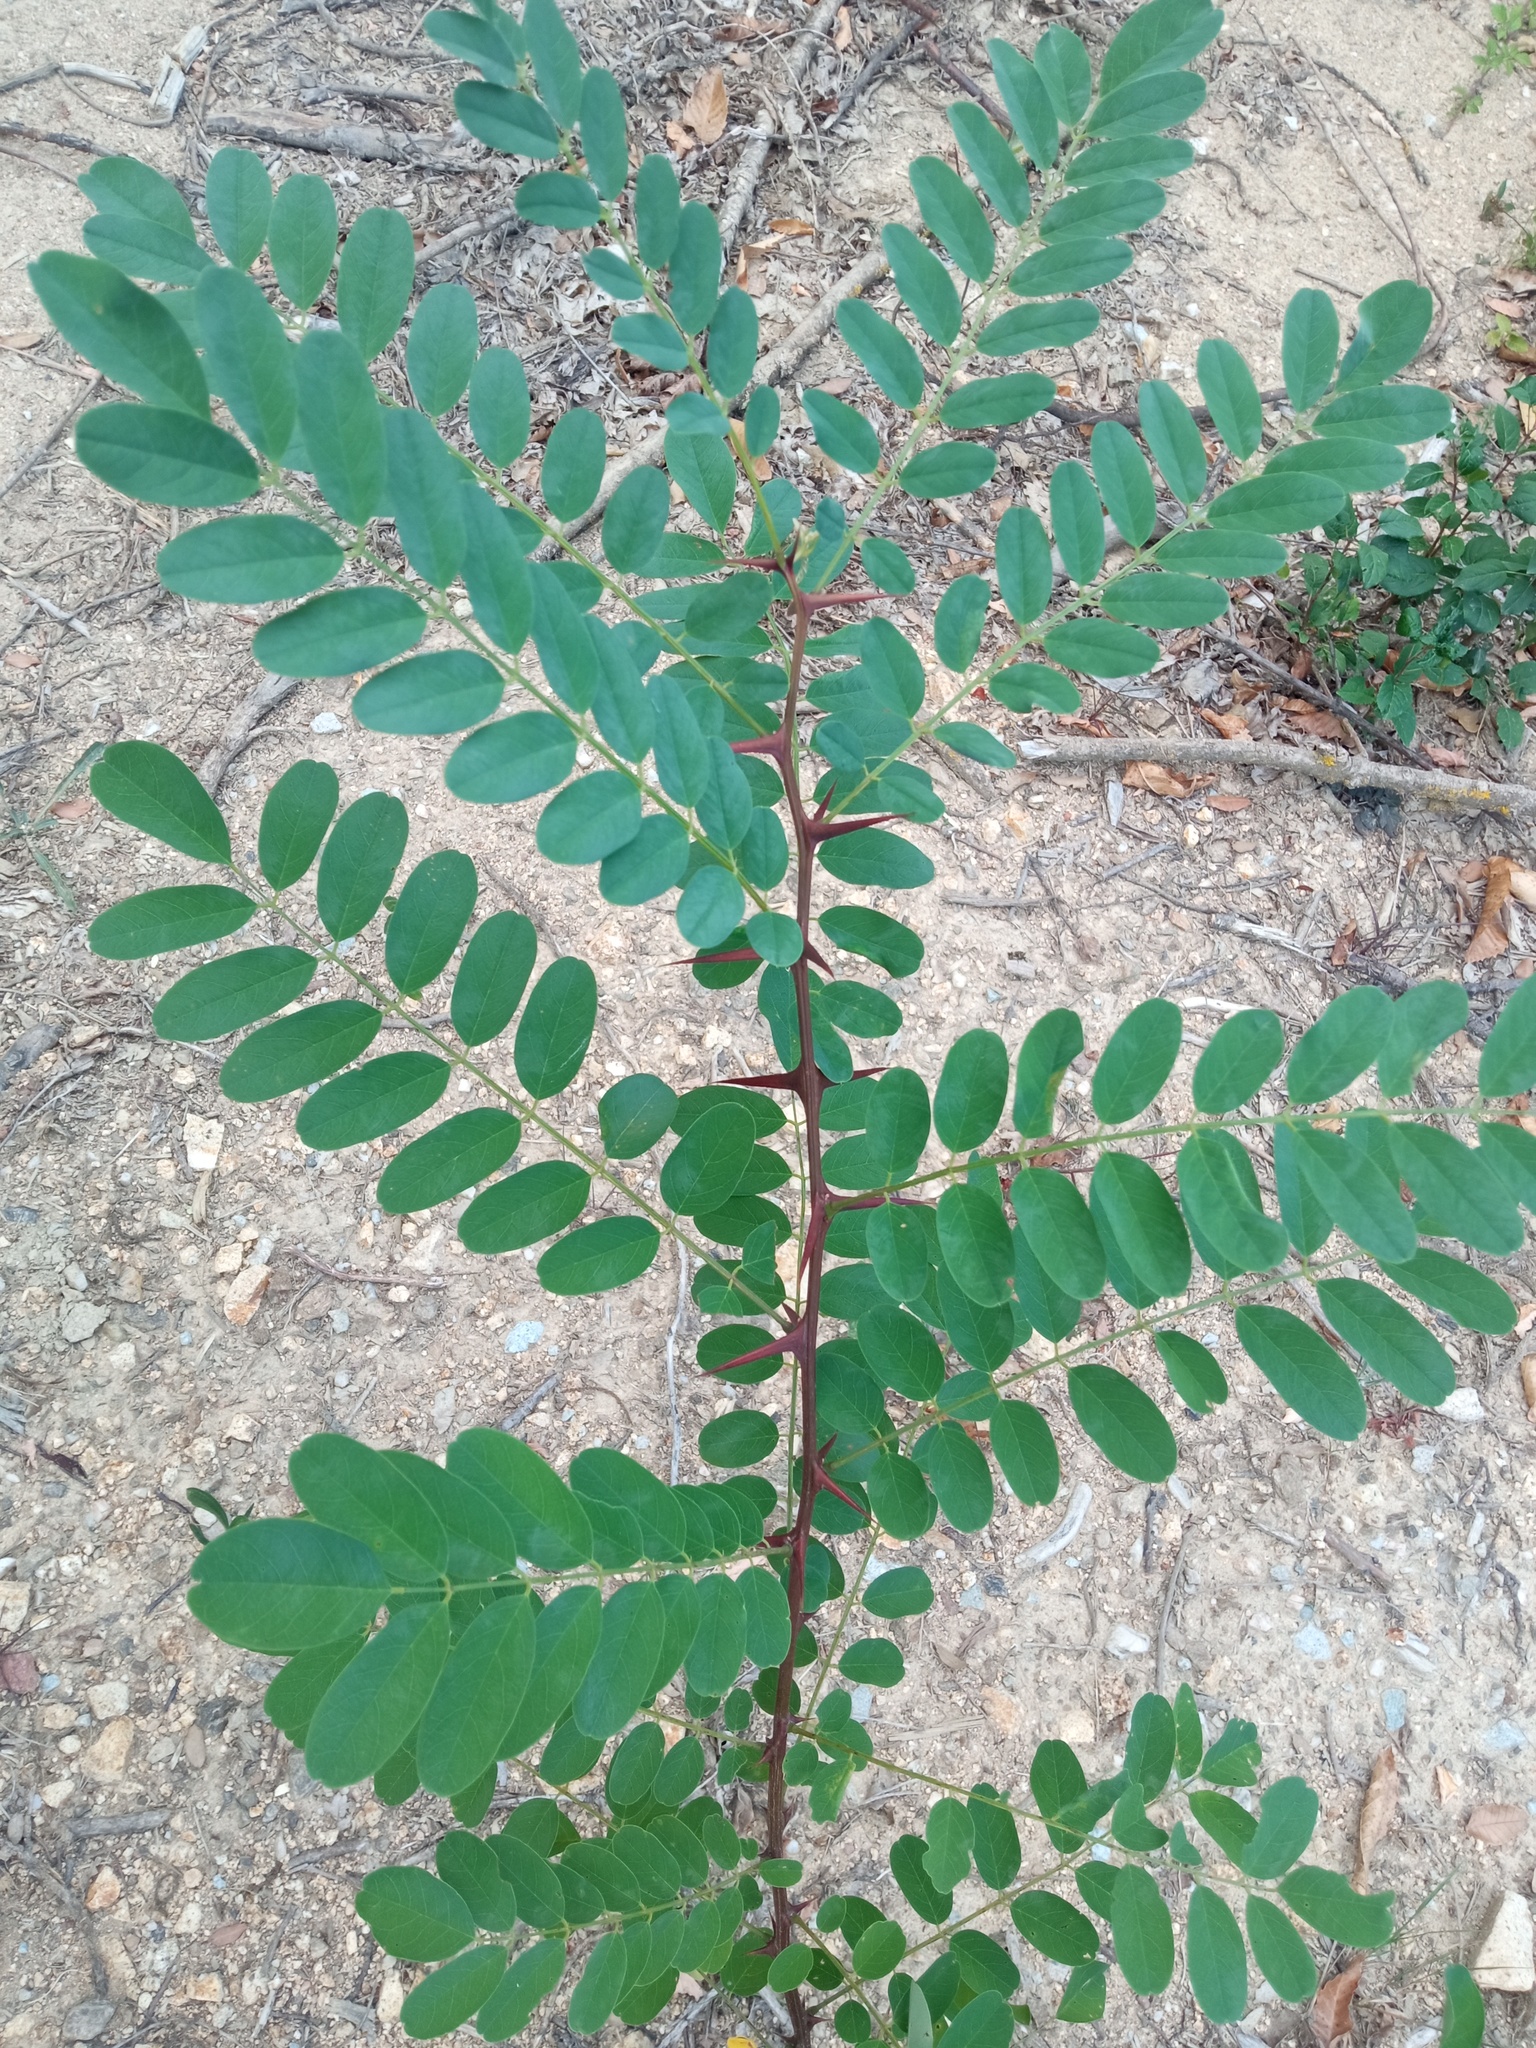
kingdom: Plantae
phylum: Tracheophyta
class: Magnoliopsida
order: Fabales
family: Fabaceae
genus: Robinia
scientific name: Robinia pseudoacacia
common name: Black locust
